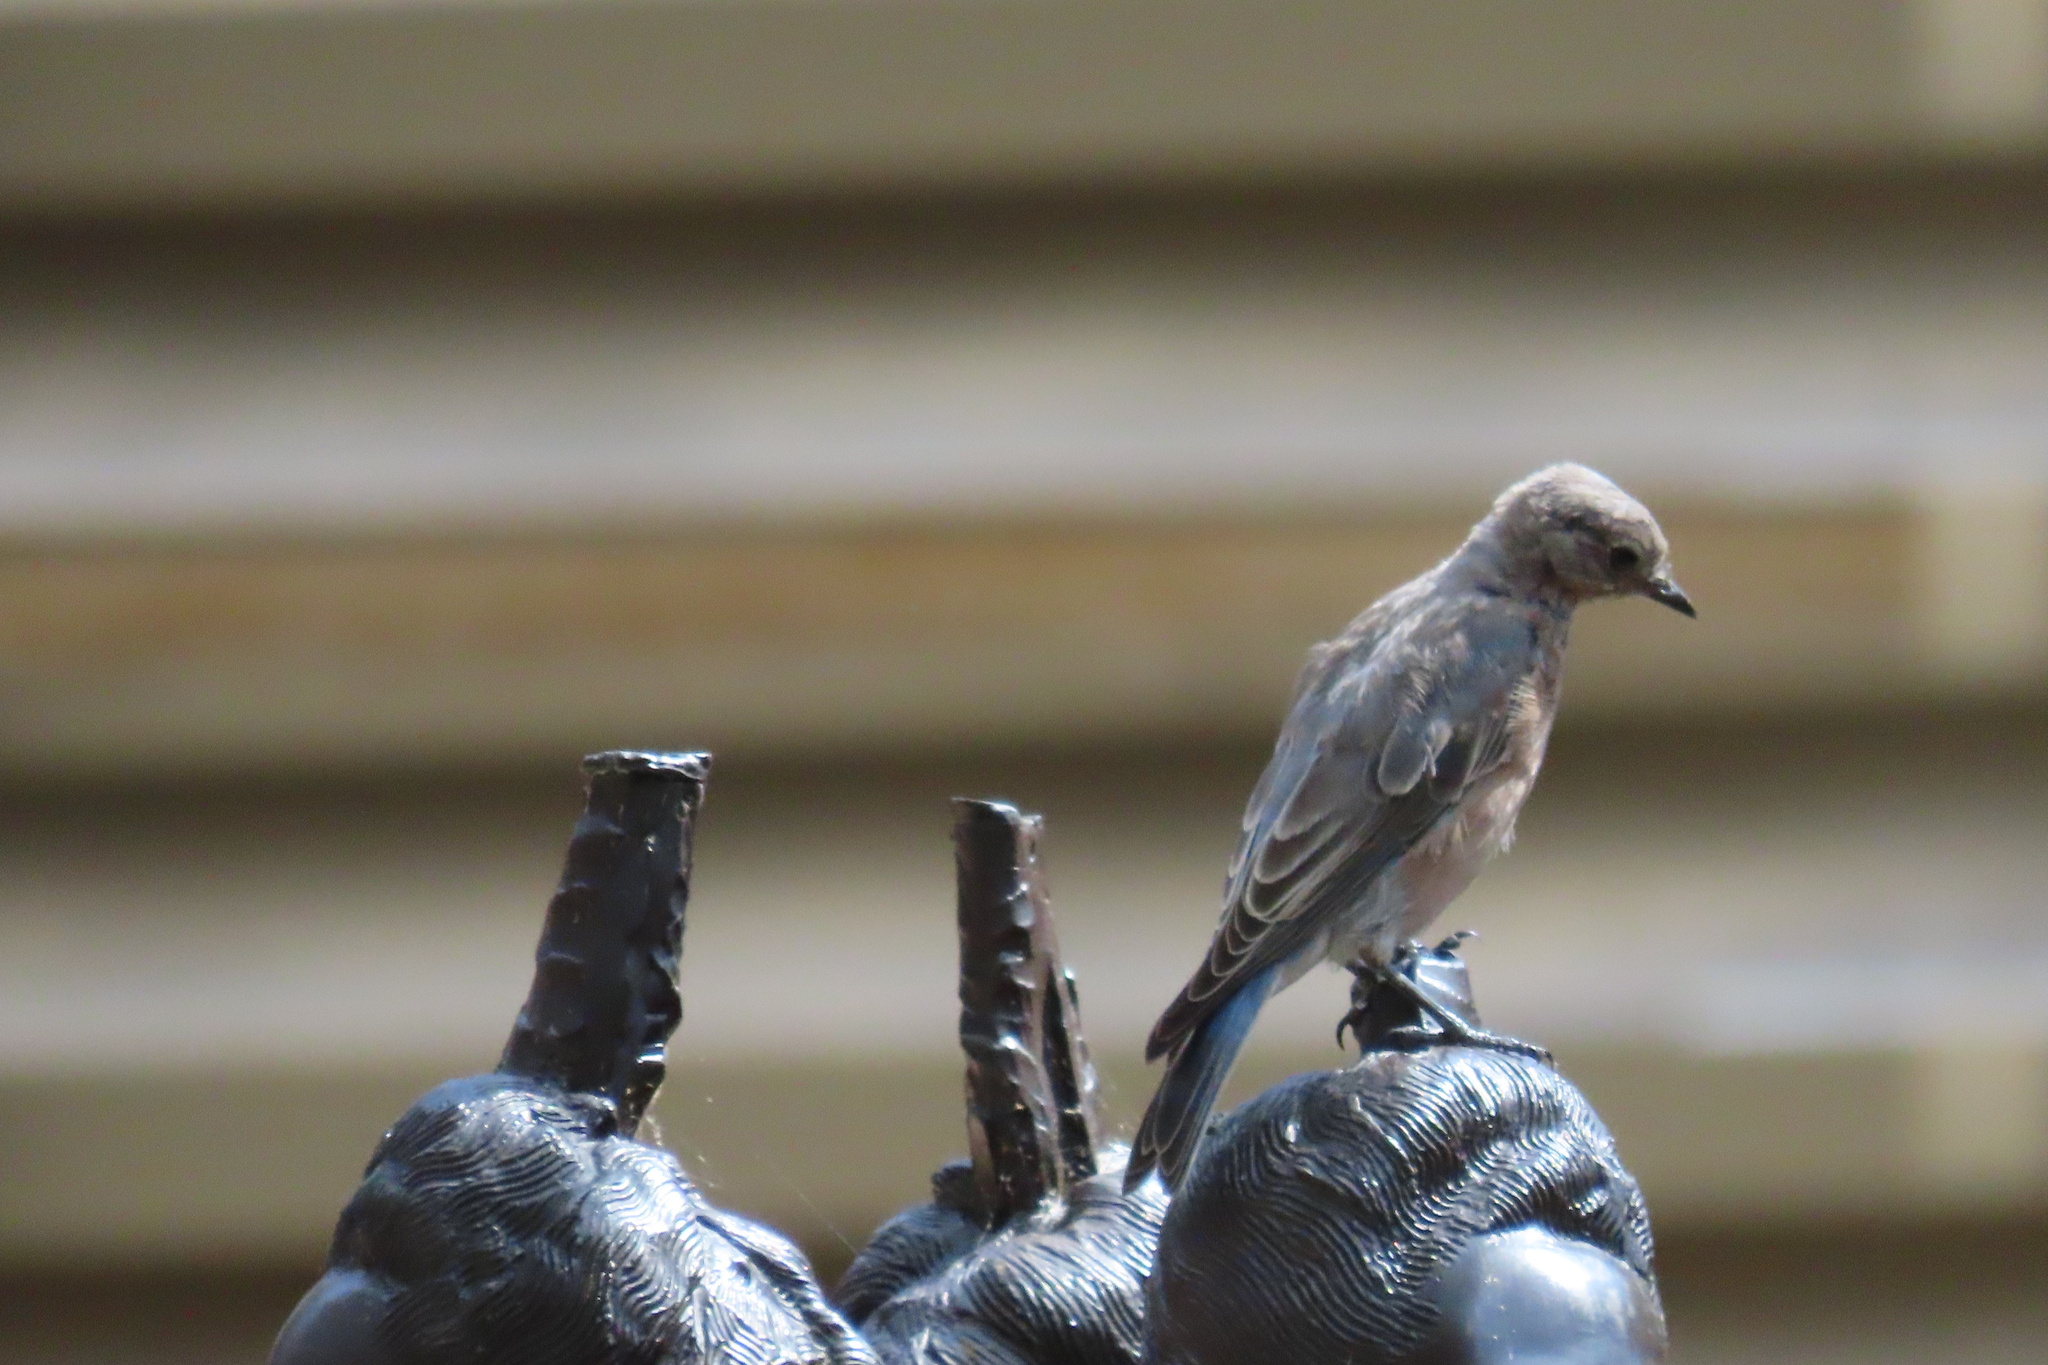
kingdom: Animalia
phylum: Chordata
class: Aves
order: Passeriformes
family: Turdidae
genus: Sialia
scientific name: Sialia mexicana
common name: Western bluebird
